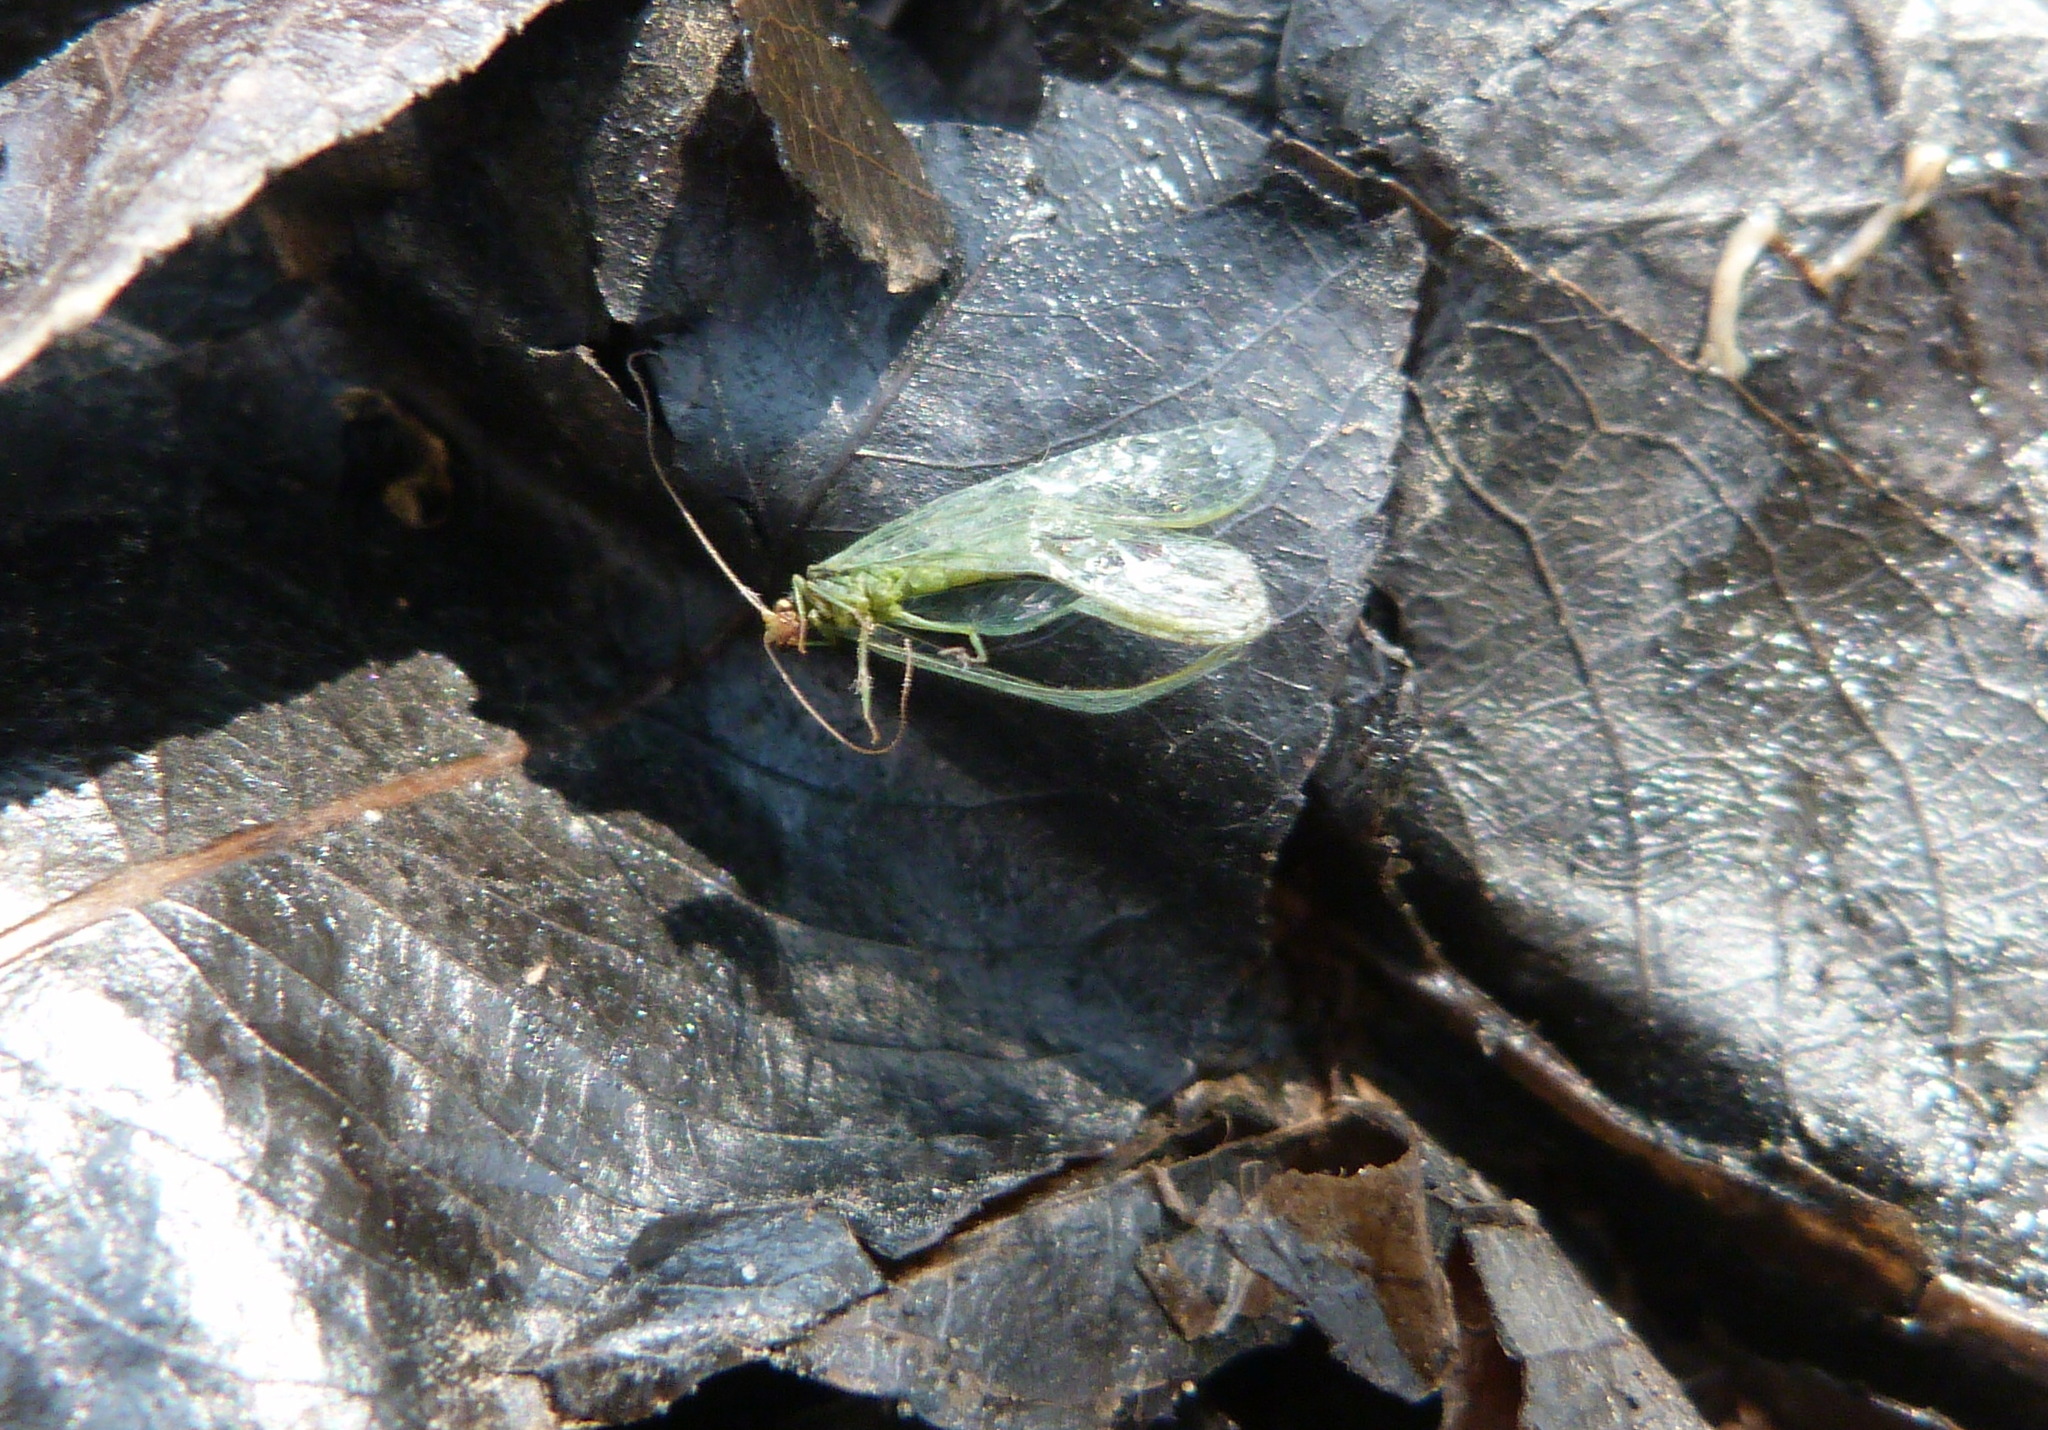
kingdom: Animalia
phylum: Arthropoda
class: Insecta
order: Neuroptera
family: Chrysopidae
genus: Chrysoperla
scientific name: Chrysoperla
